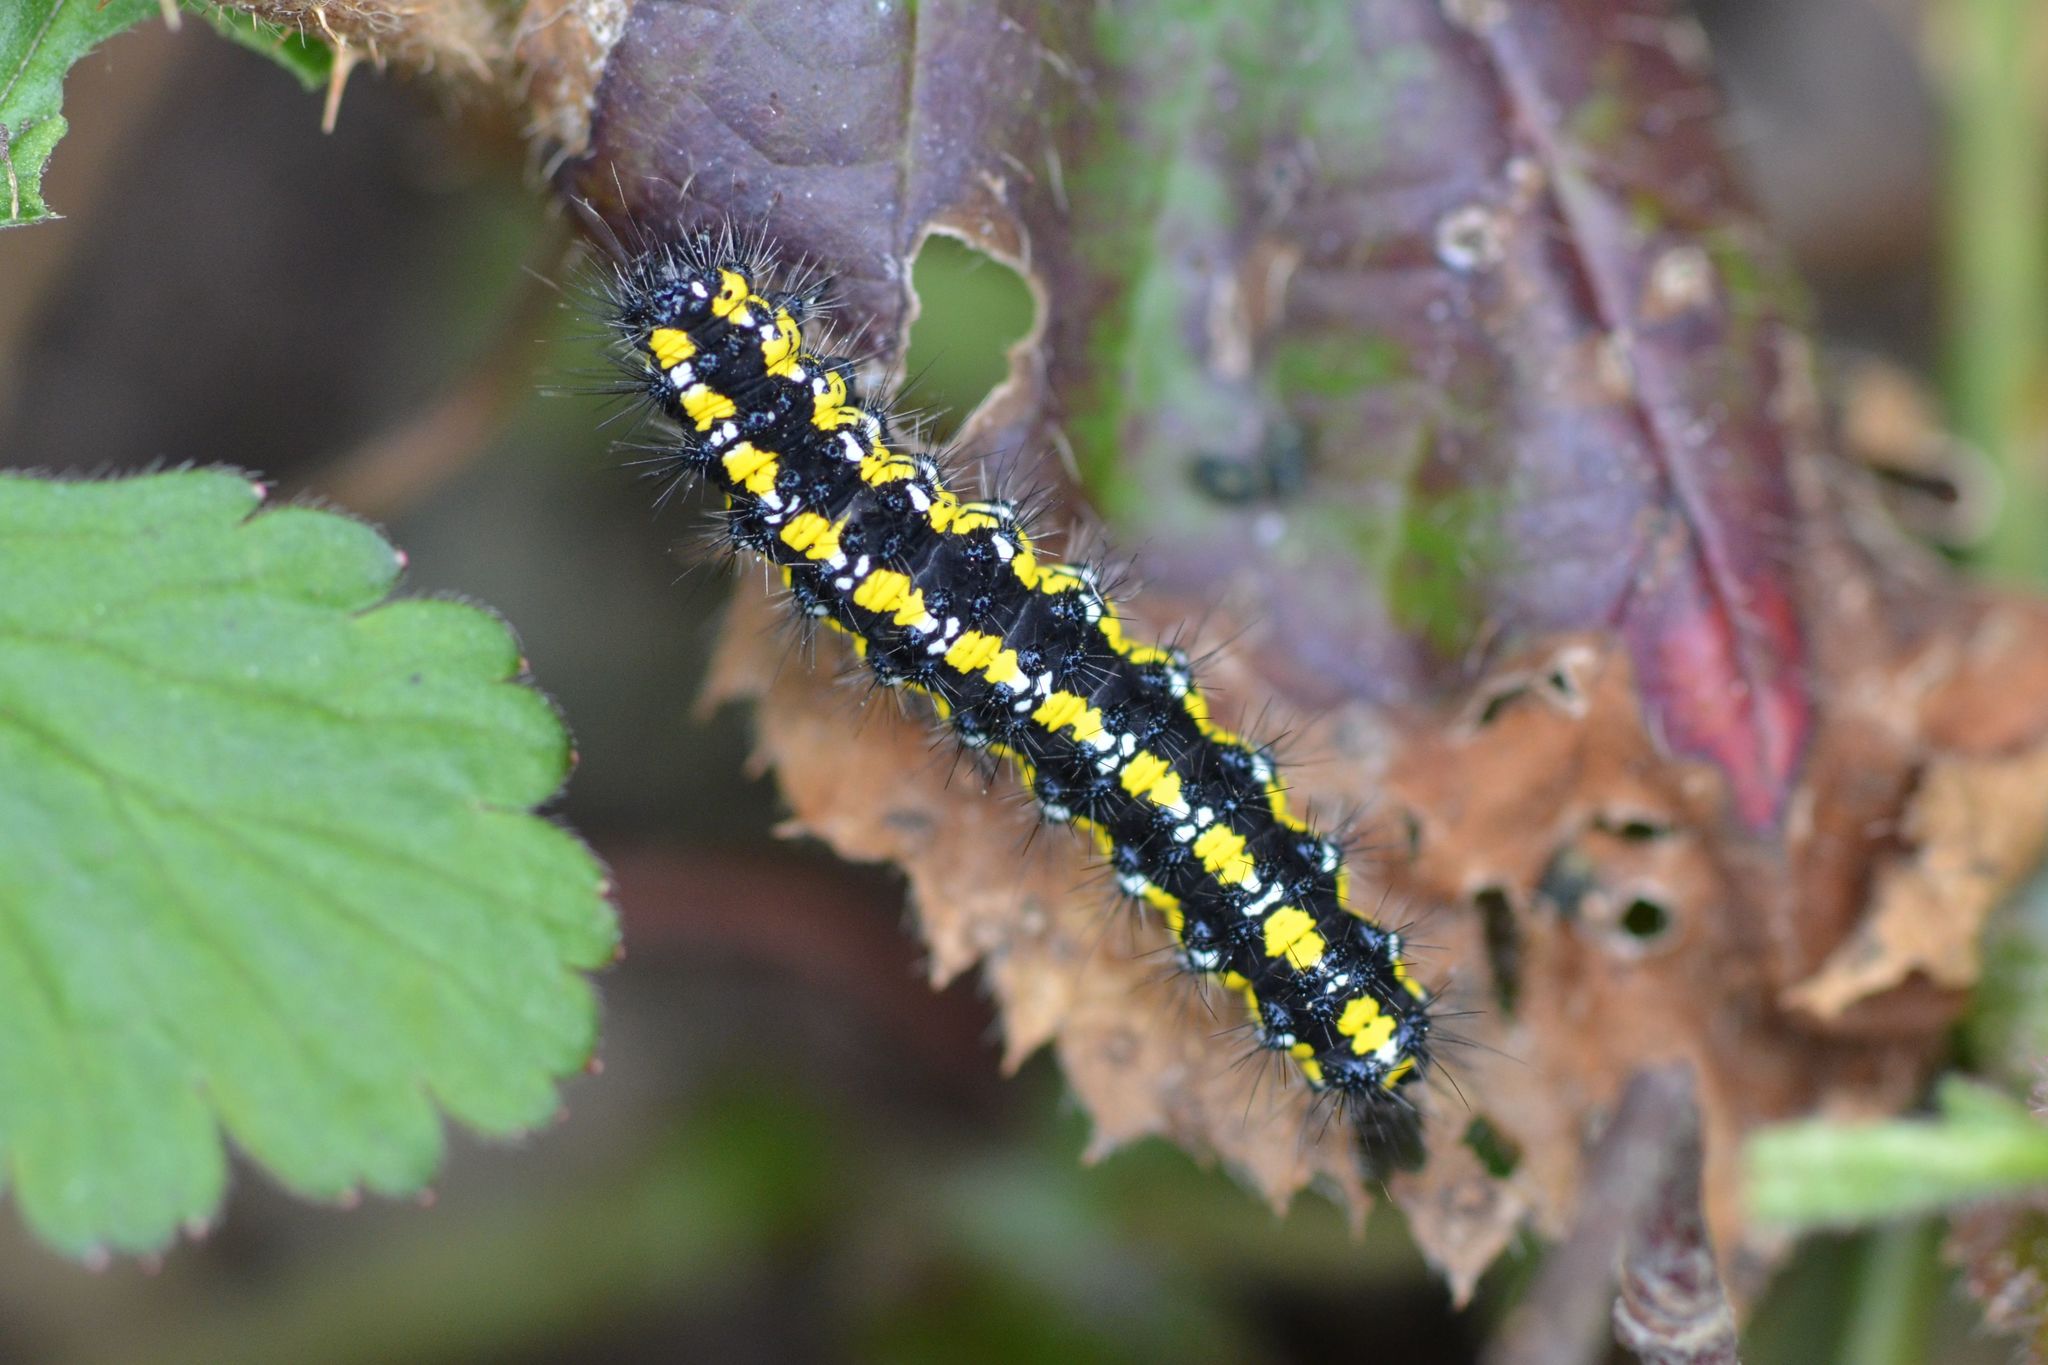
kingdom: Animalia
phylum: Arthropoda
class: Insecta
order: Lepidoptera
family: Erebidae
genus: Callimorpha
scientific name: Callimorpha dominula
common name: Scarlet tiger
